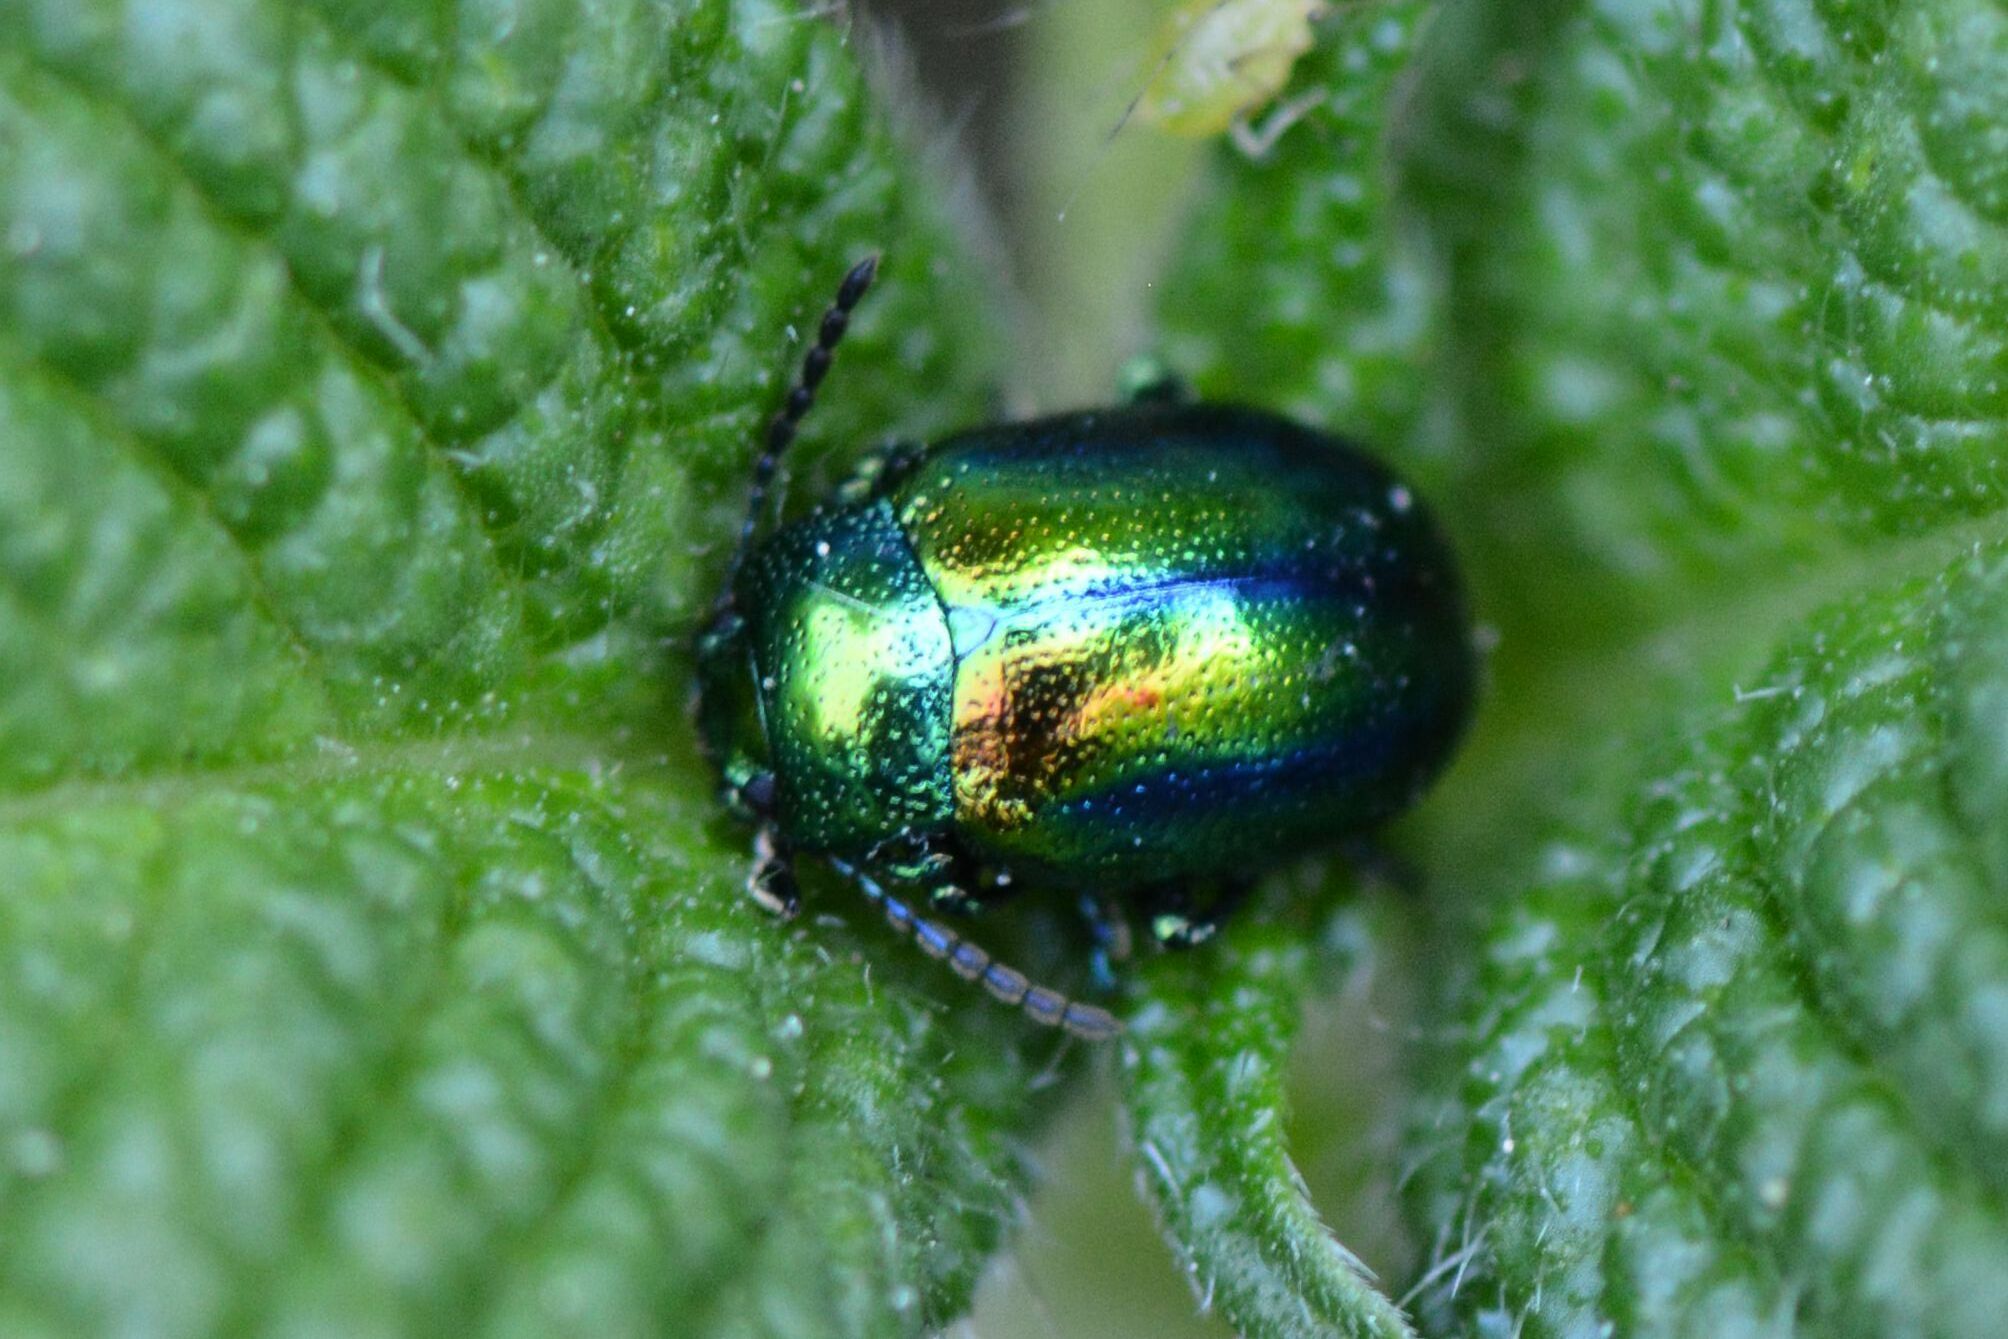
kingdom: Animalia
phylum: Arthropoda
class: Insecta
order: Coleoptera
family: Chrysomelidae
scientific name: Chrysomelidae
